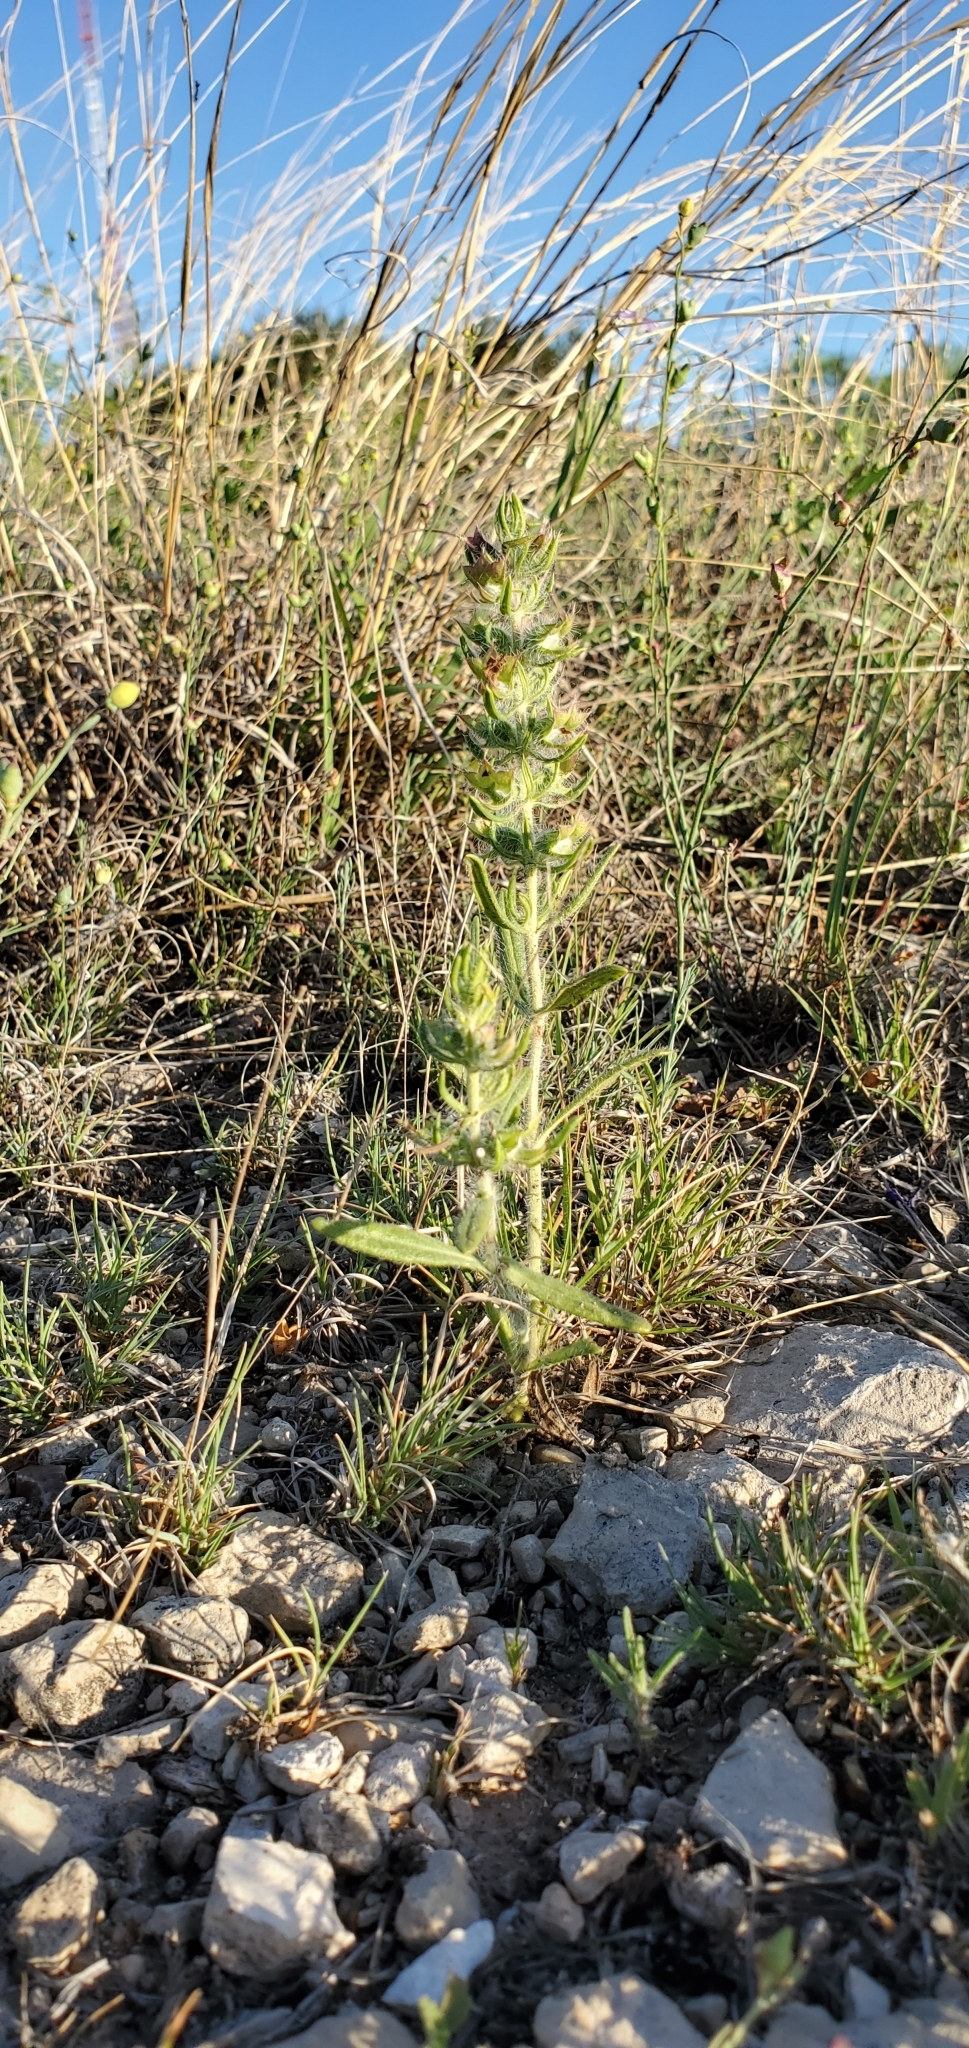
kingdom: Plantae
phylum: Tracheophyta
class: Magnoliopsida
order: Lamiales
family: Lamiaceae
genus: Salvia
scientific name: Salvia texana
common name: Texas sage
